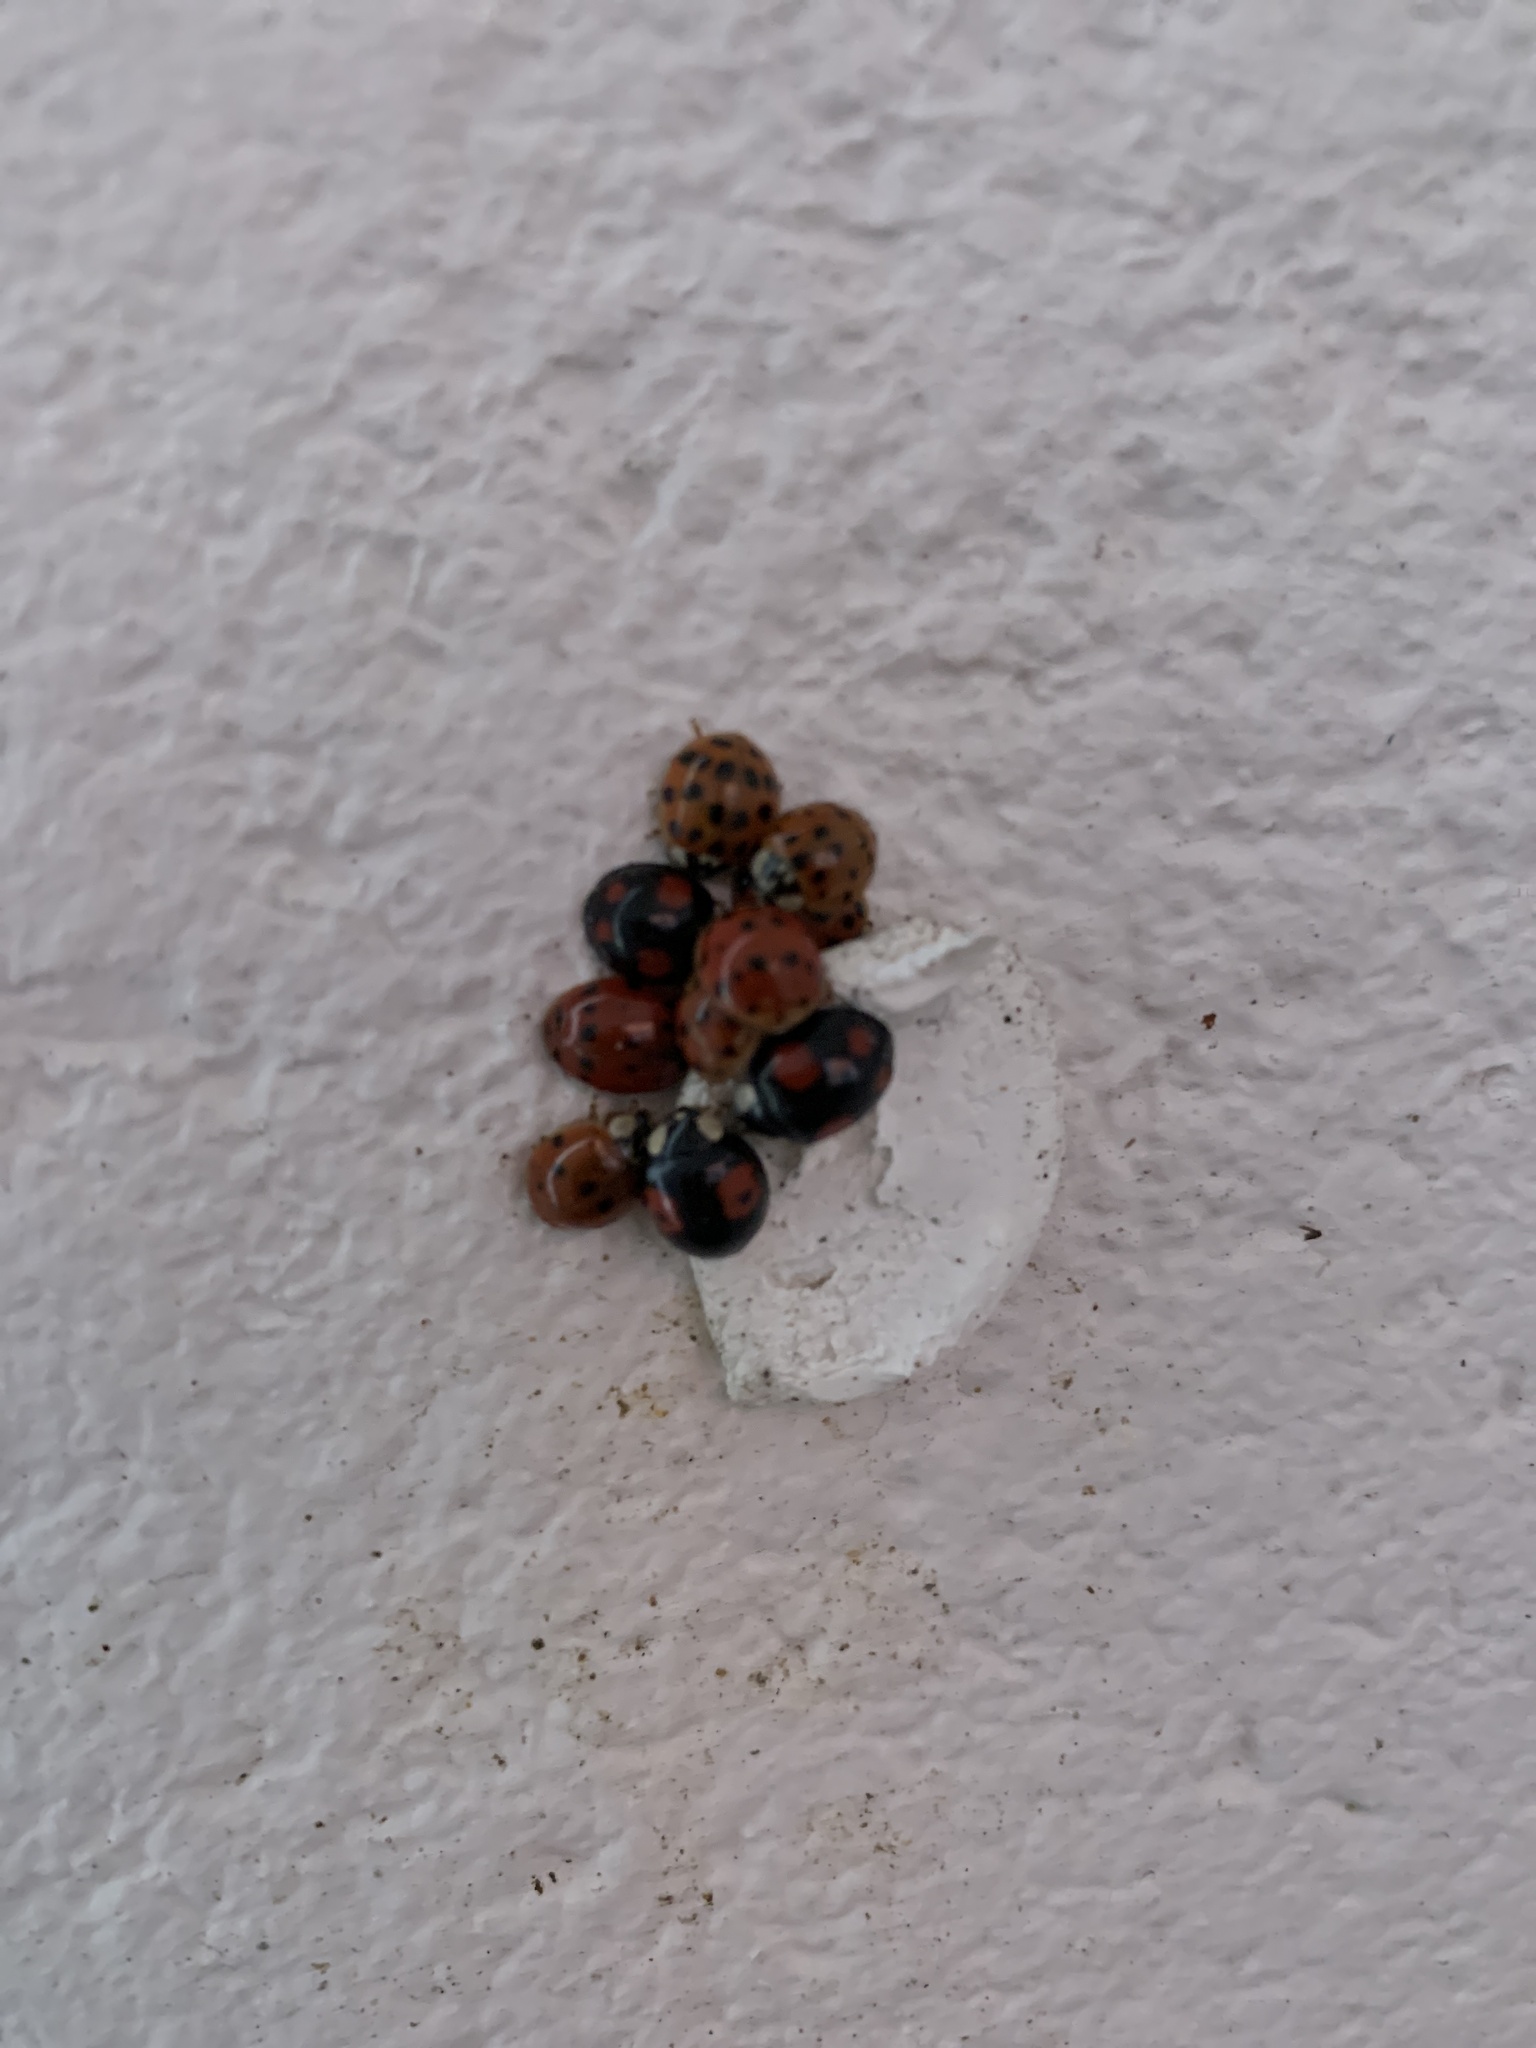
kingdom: Animalia
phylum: Arthropoda
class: Insecta
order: Coleoptera
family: Coccinellidae
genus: Harmonia
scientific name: Harmonia axyridis
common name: Harlequin ladybird
